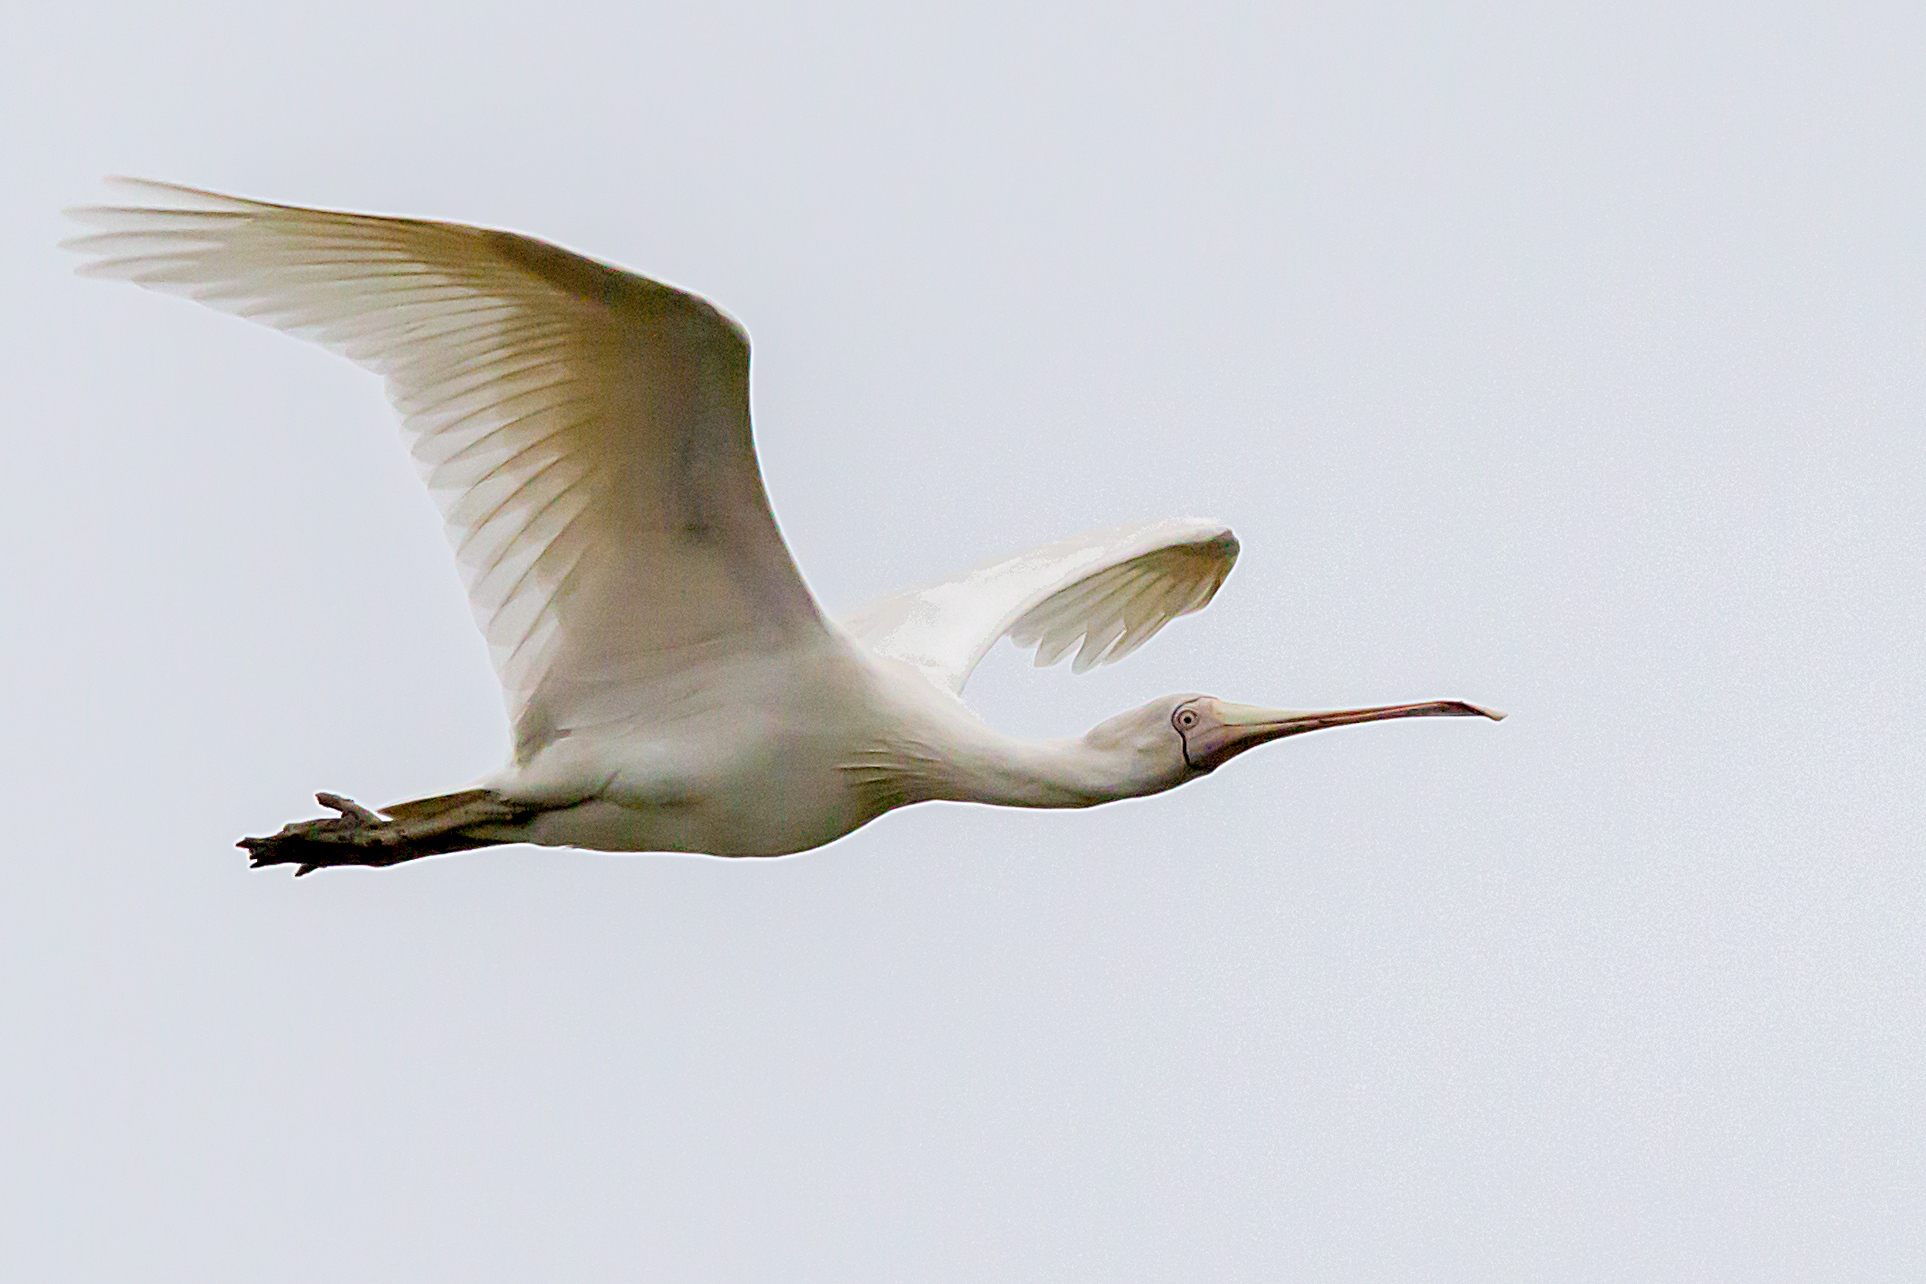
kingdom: Animalia
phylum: Chordata
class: Aves
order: Pelecaniformes
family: Threskiornithidae
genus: Platalea
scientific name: Platalea flavipes
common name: Yellow-billed spoonbill
